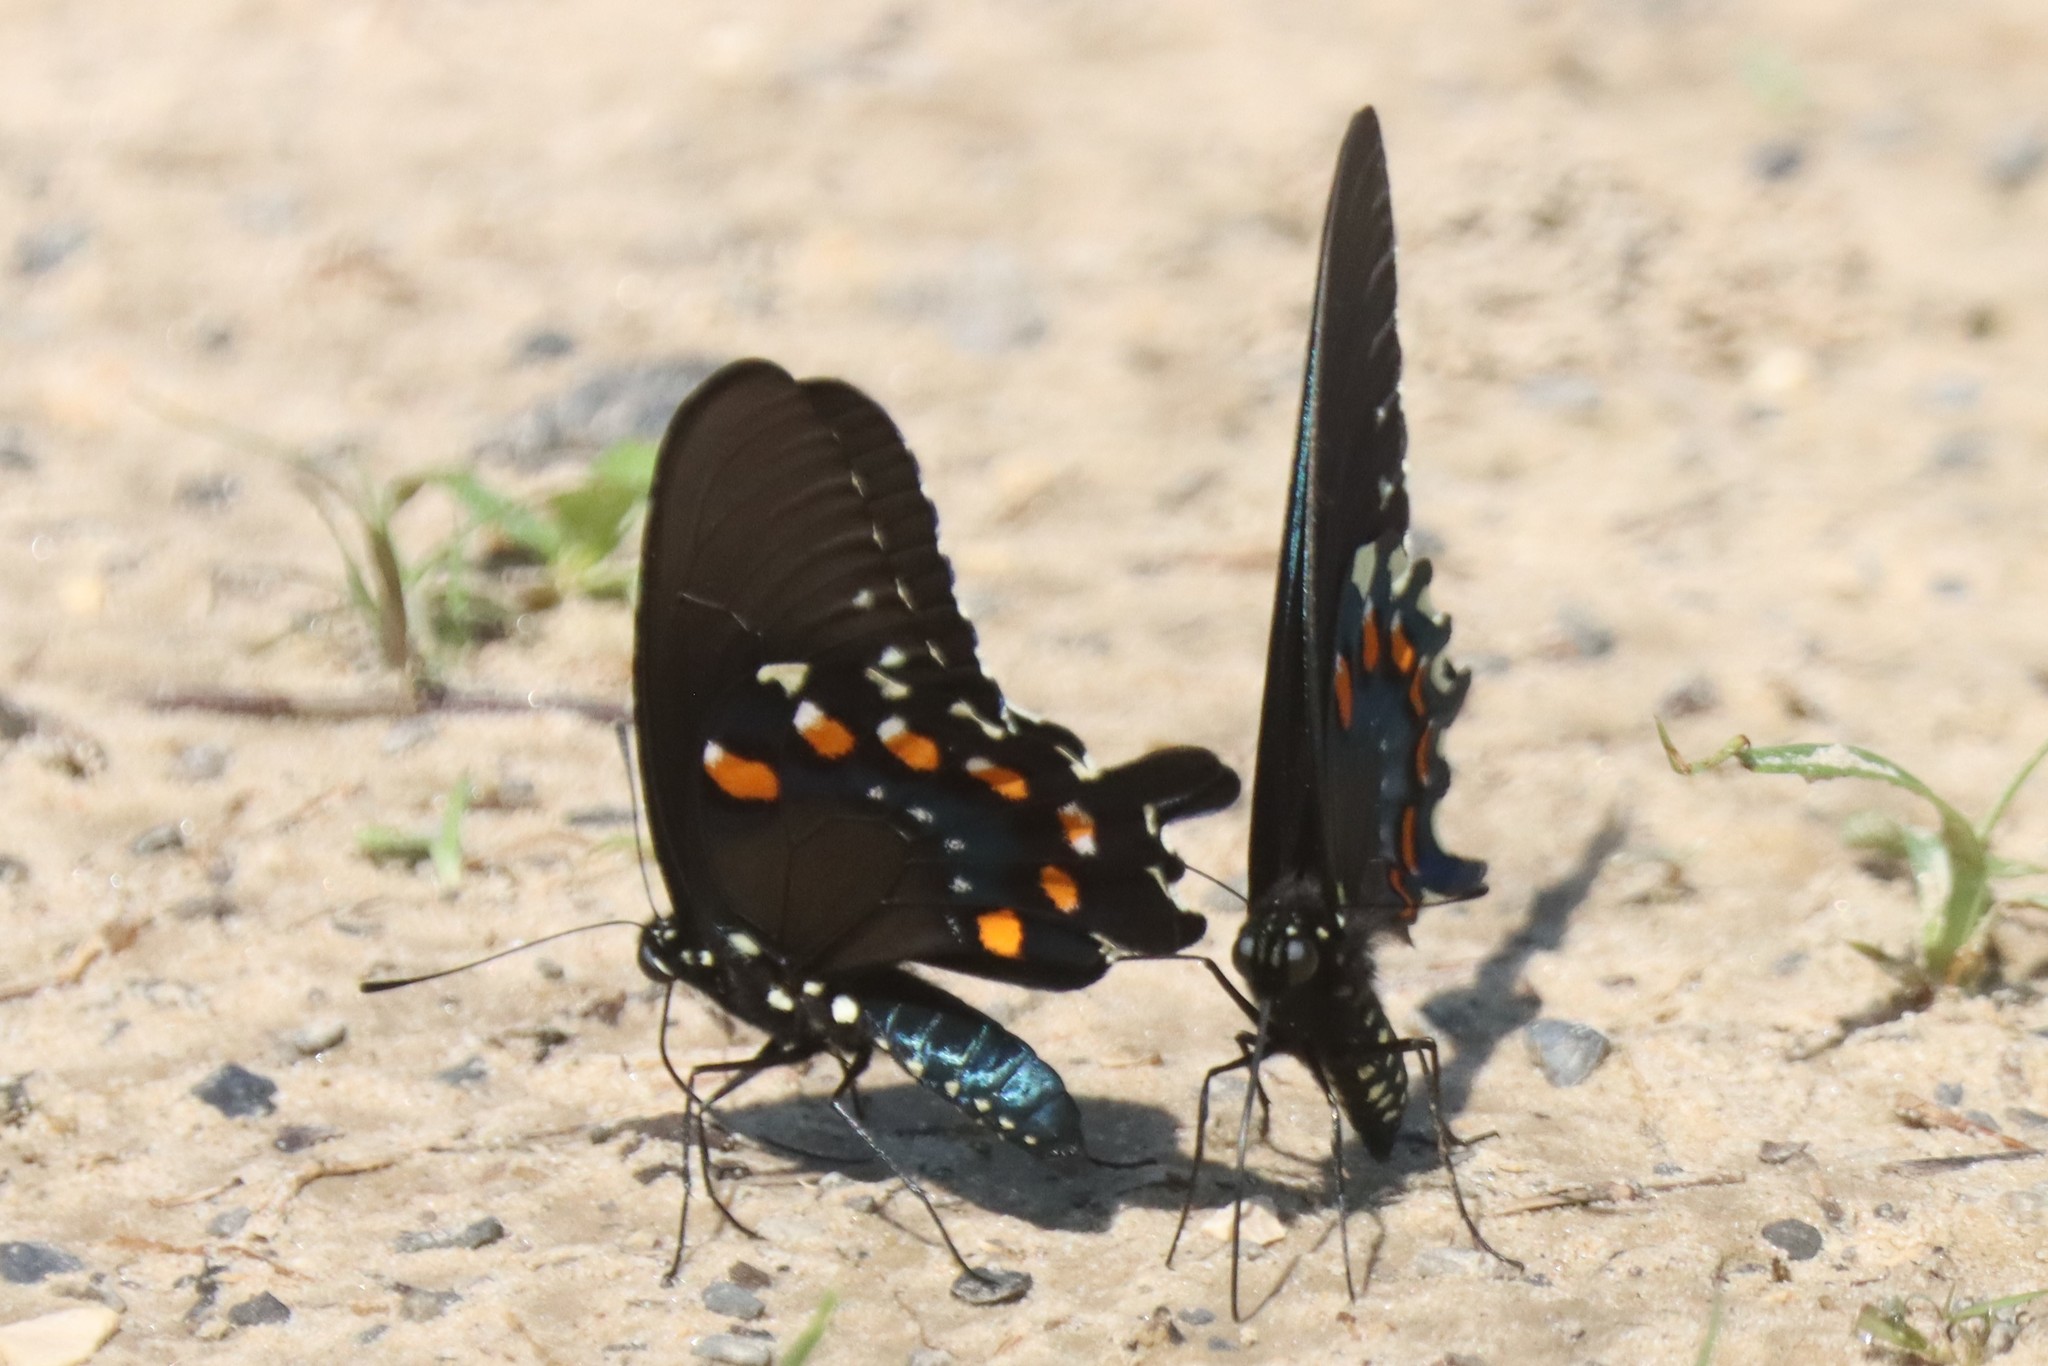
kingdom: Animalia
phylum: Arthropoda
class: Insecta
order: Lepidoptera
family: Papilionidae
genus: Battus
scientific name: Battus philenor
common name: Pipevine swallowtail
